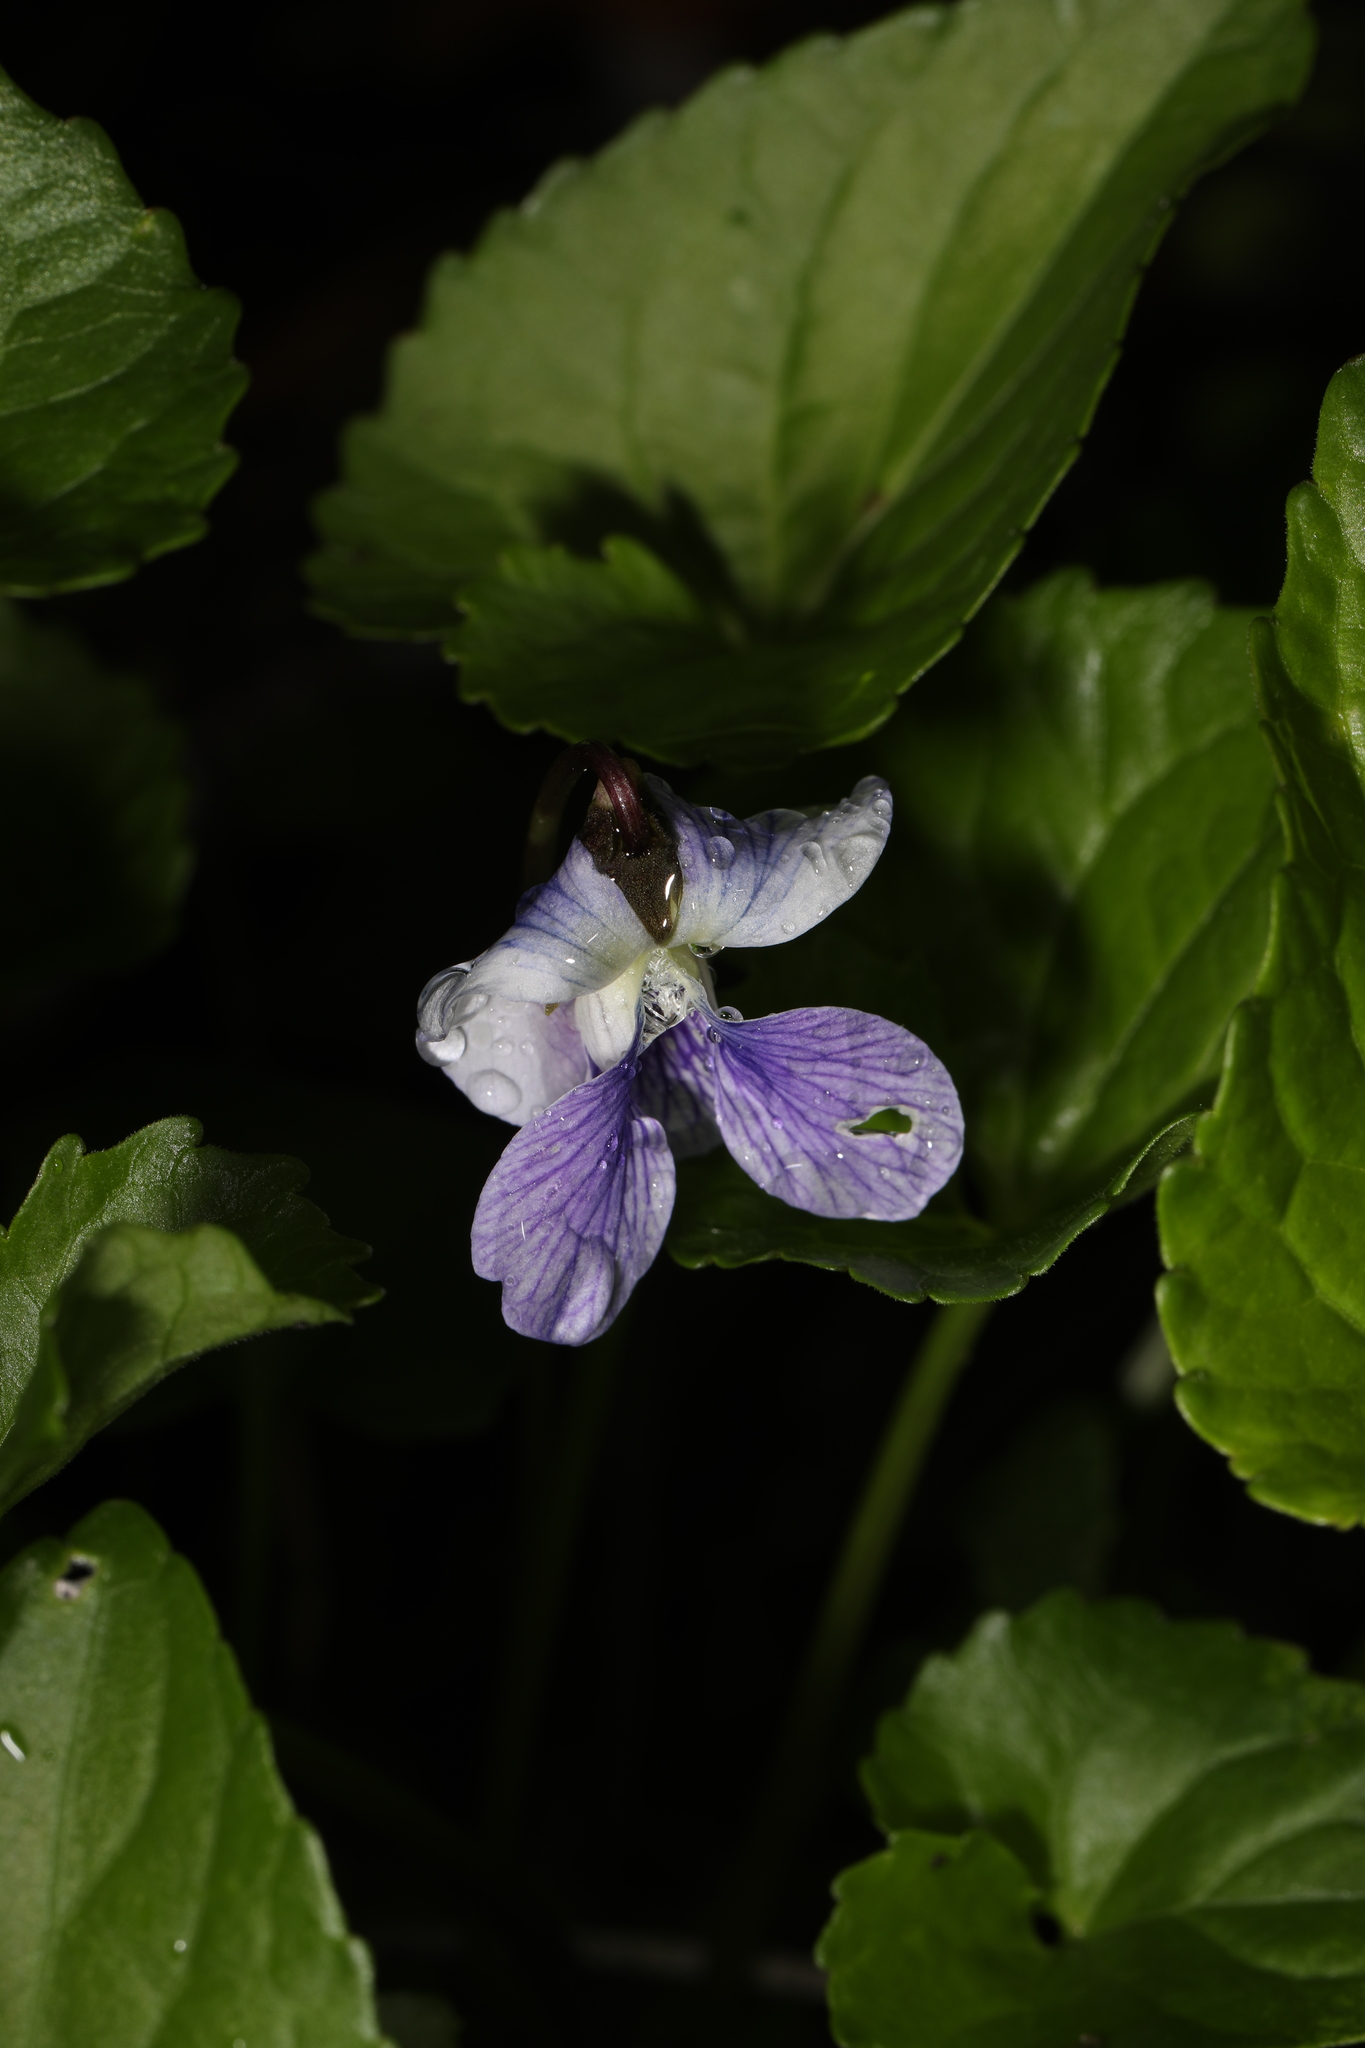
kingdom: Plantae
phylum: Tracheophyta
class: Magnoliopsida
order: Malpighiales
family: Violaceae
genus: Viola
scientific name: Viola sororia
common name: Dooryard violet
